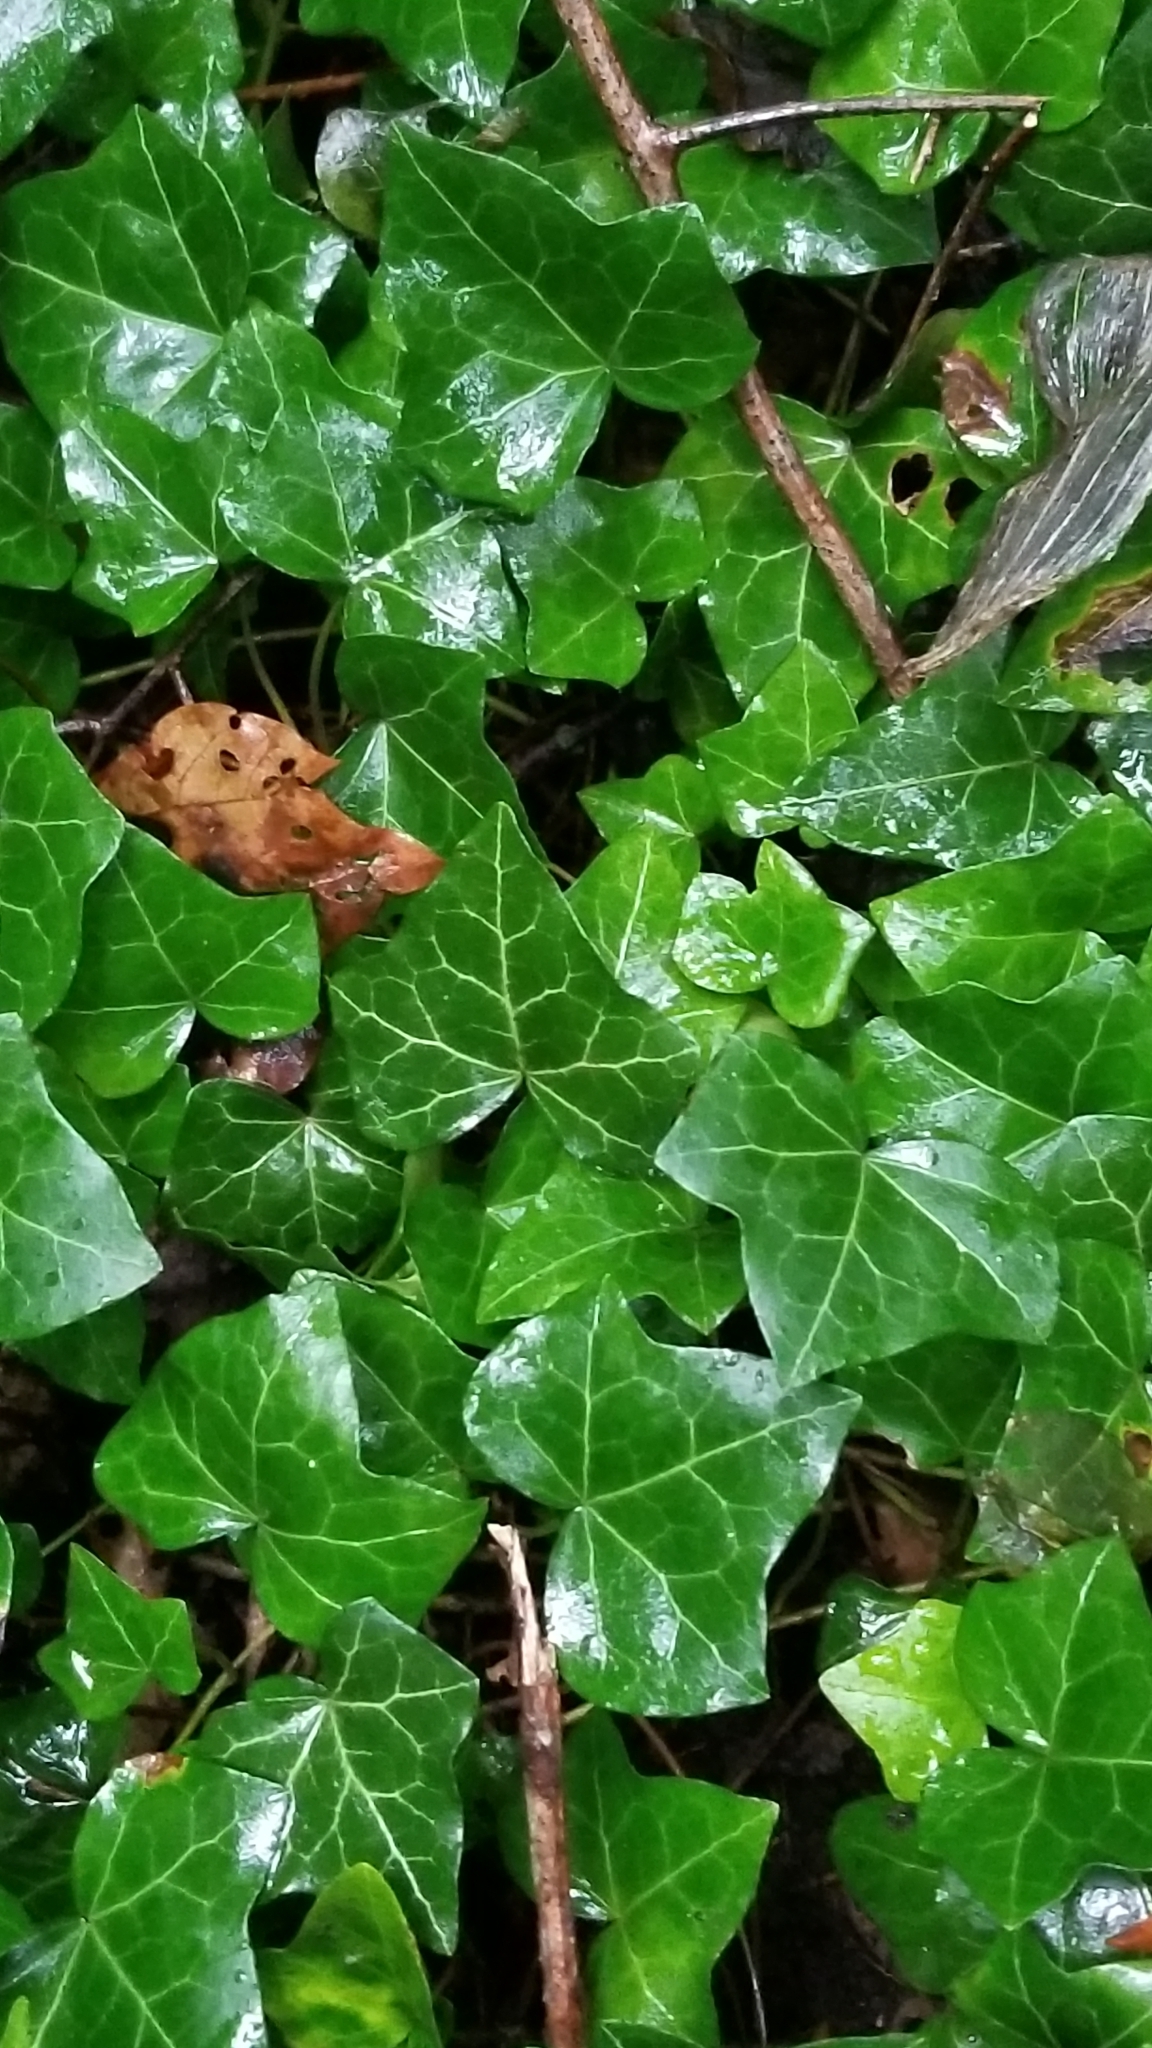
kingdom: Plantae
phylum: Tracheophyta
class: Magnoliopsida
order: Apiales
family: Araliaceae
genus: Hedera
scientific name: Hedera helix
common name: Ivy
